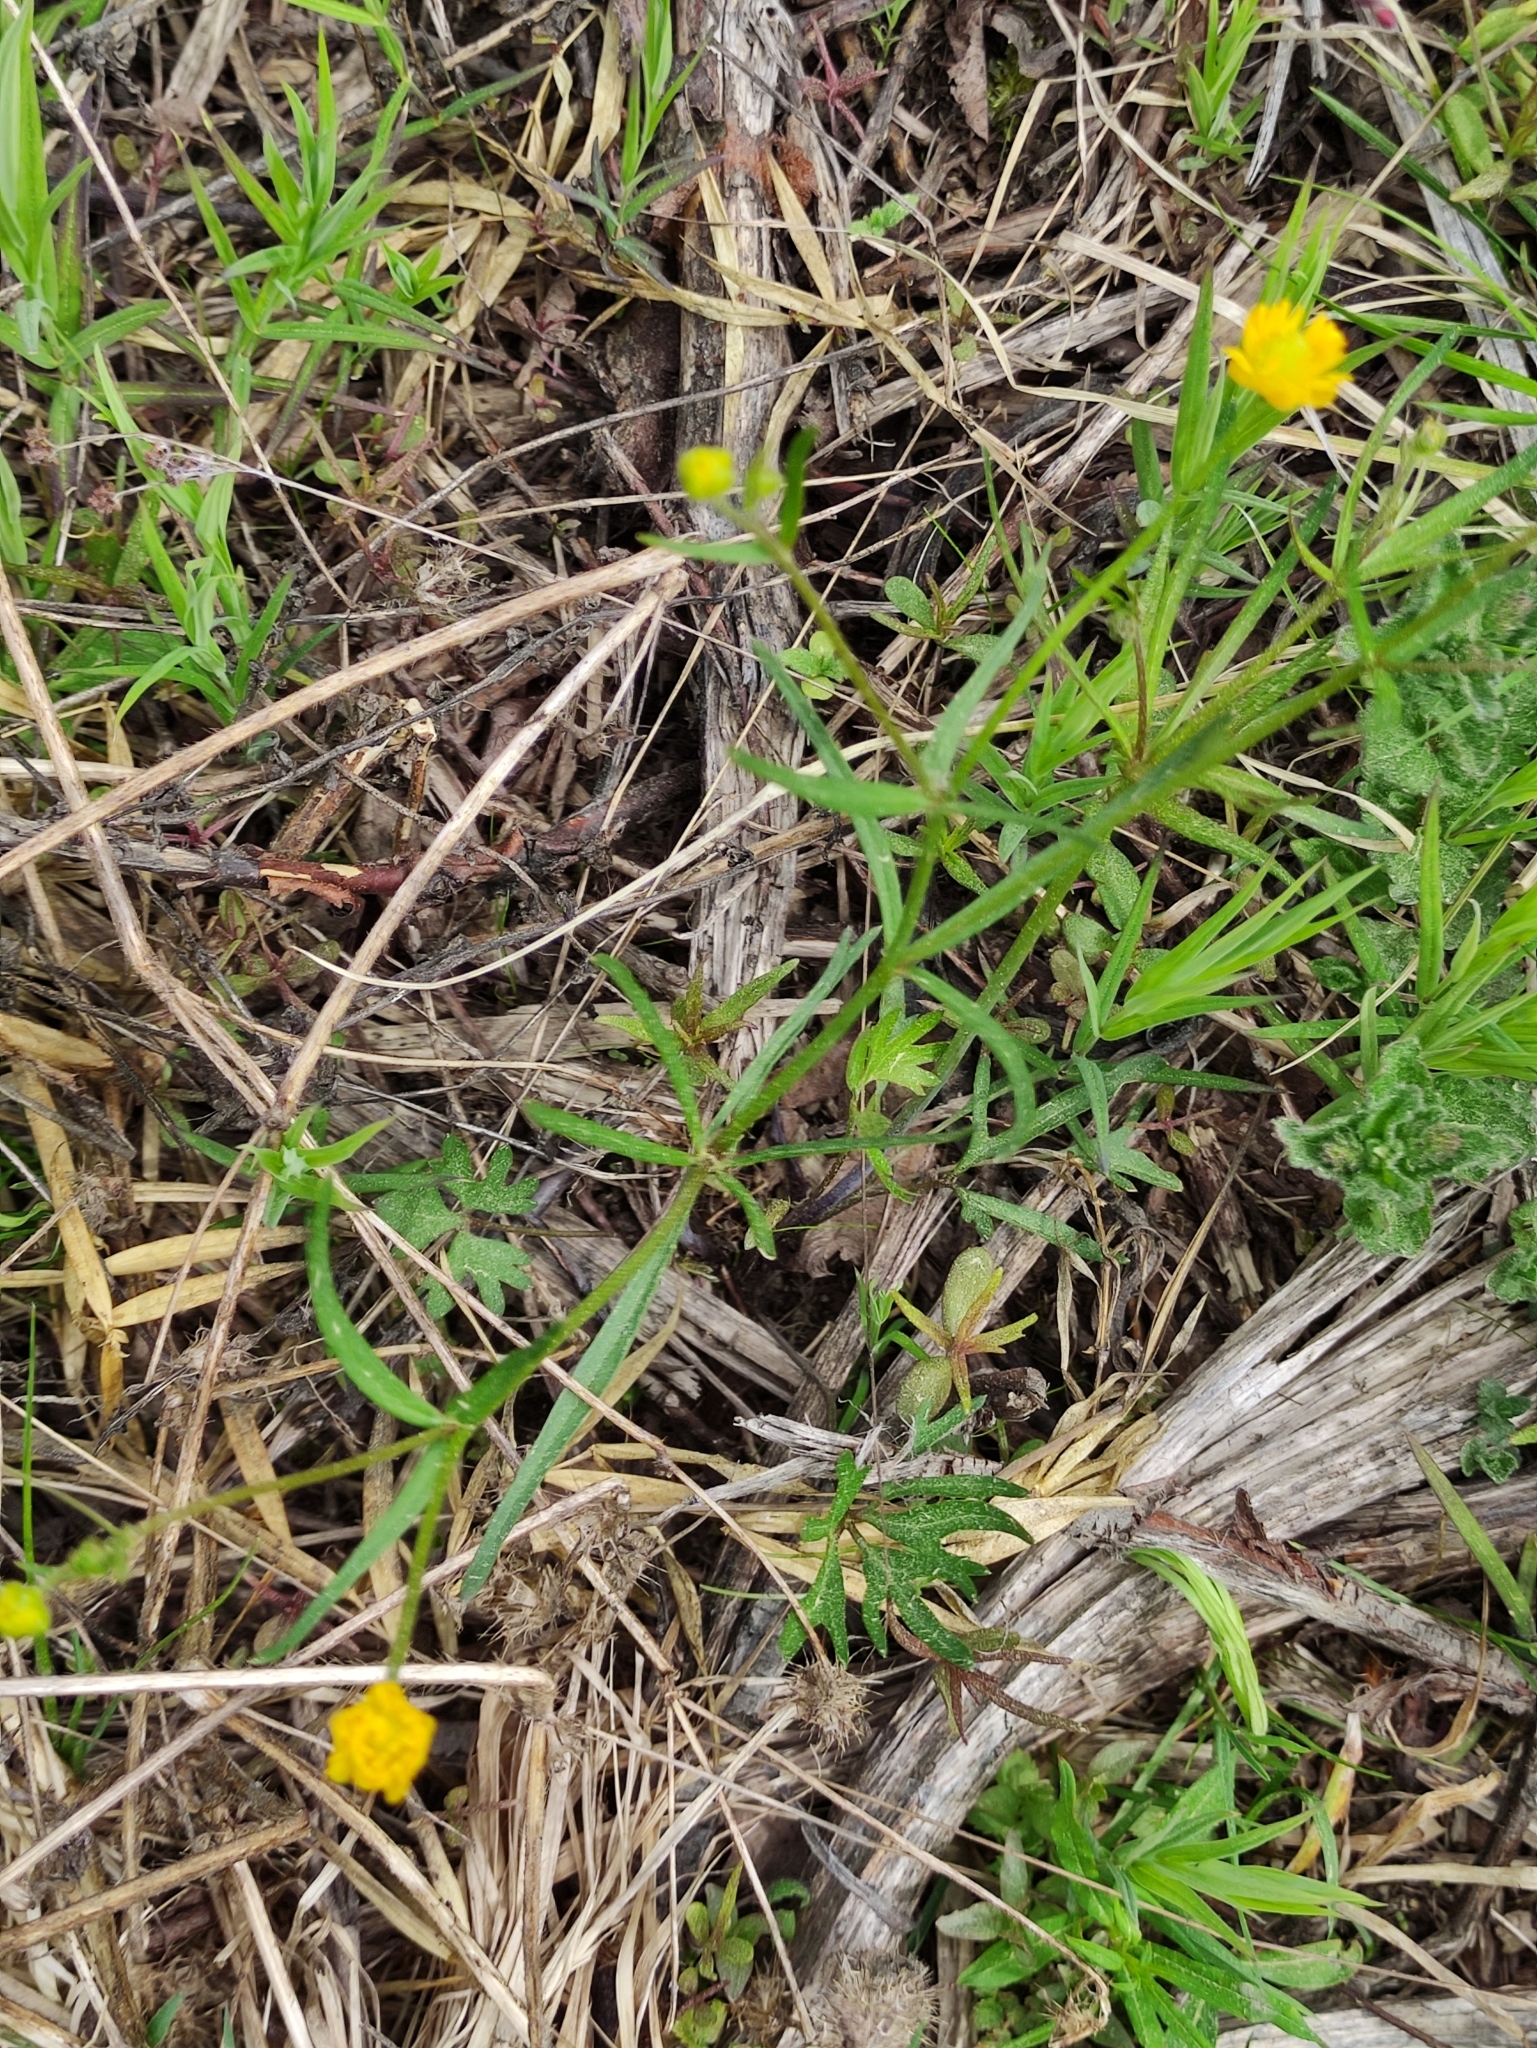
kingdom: Plantae
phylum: Tracheophyta
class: Magnoliopsida
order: Ranunculales
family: Ranunculaceae
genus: Ranunculus
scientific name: Ranunculus auricomus
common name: Goldilocks buttercup
